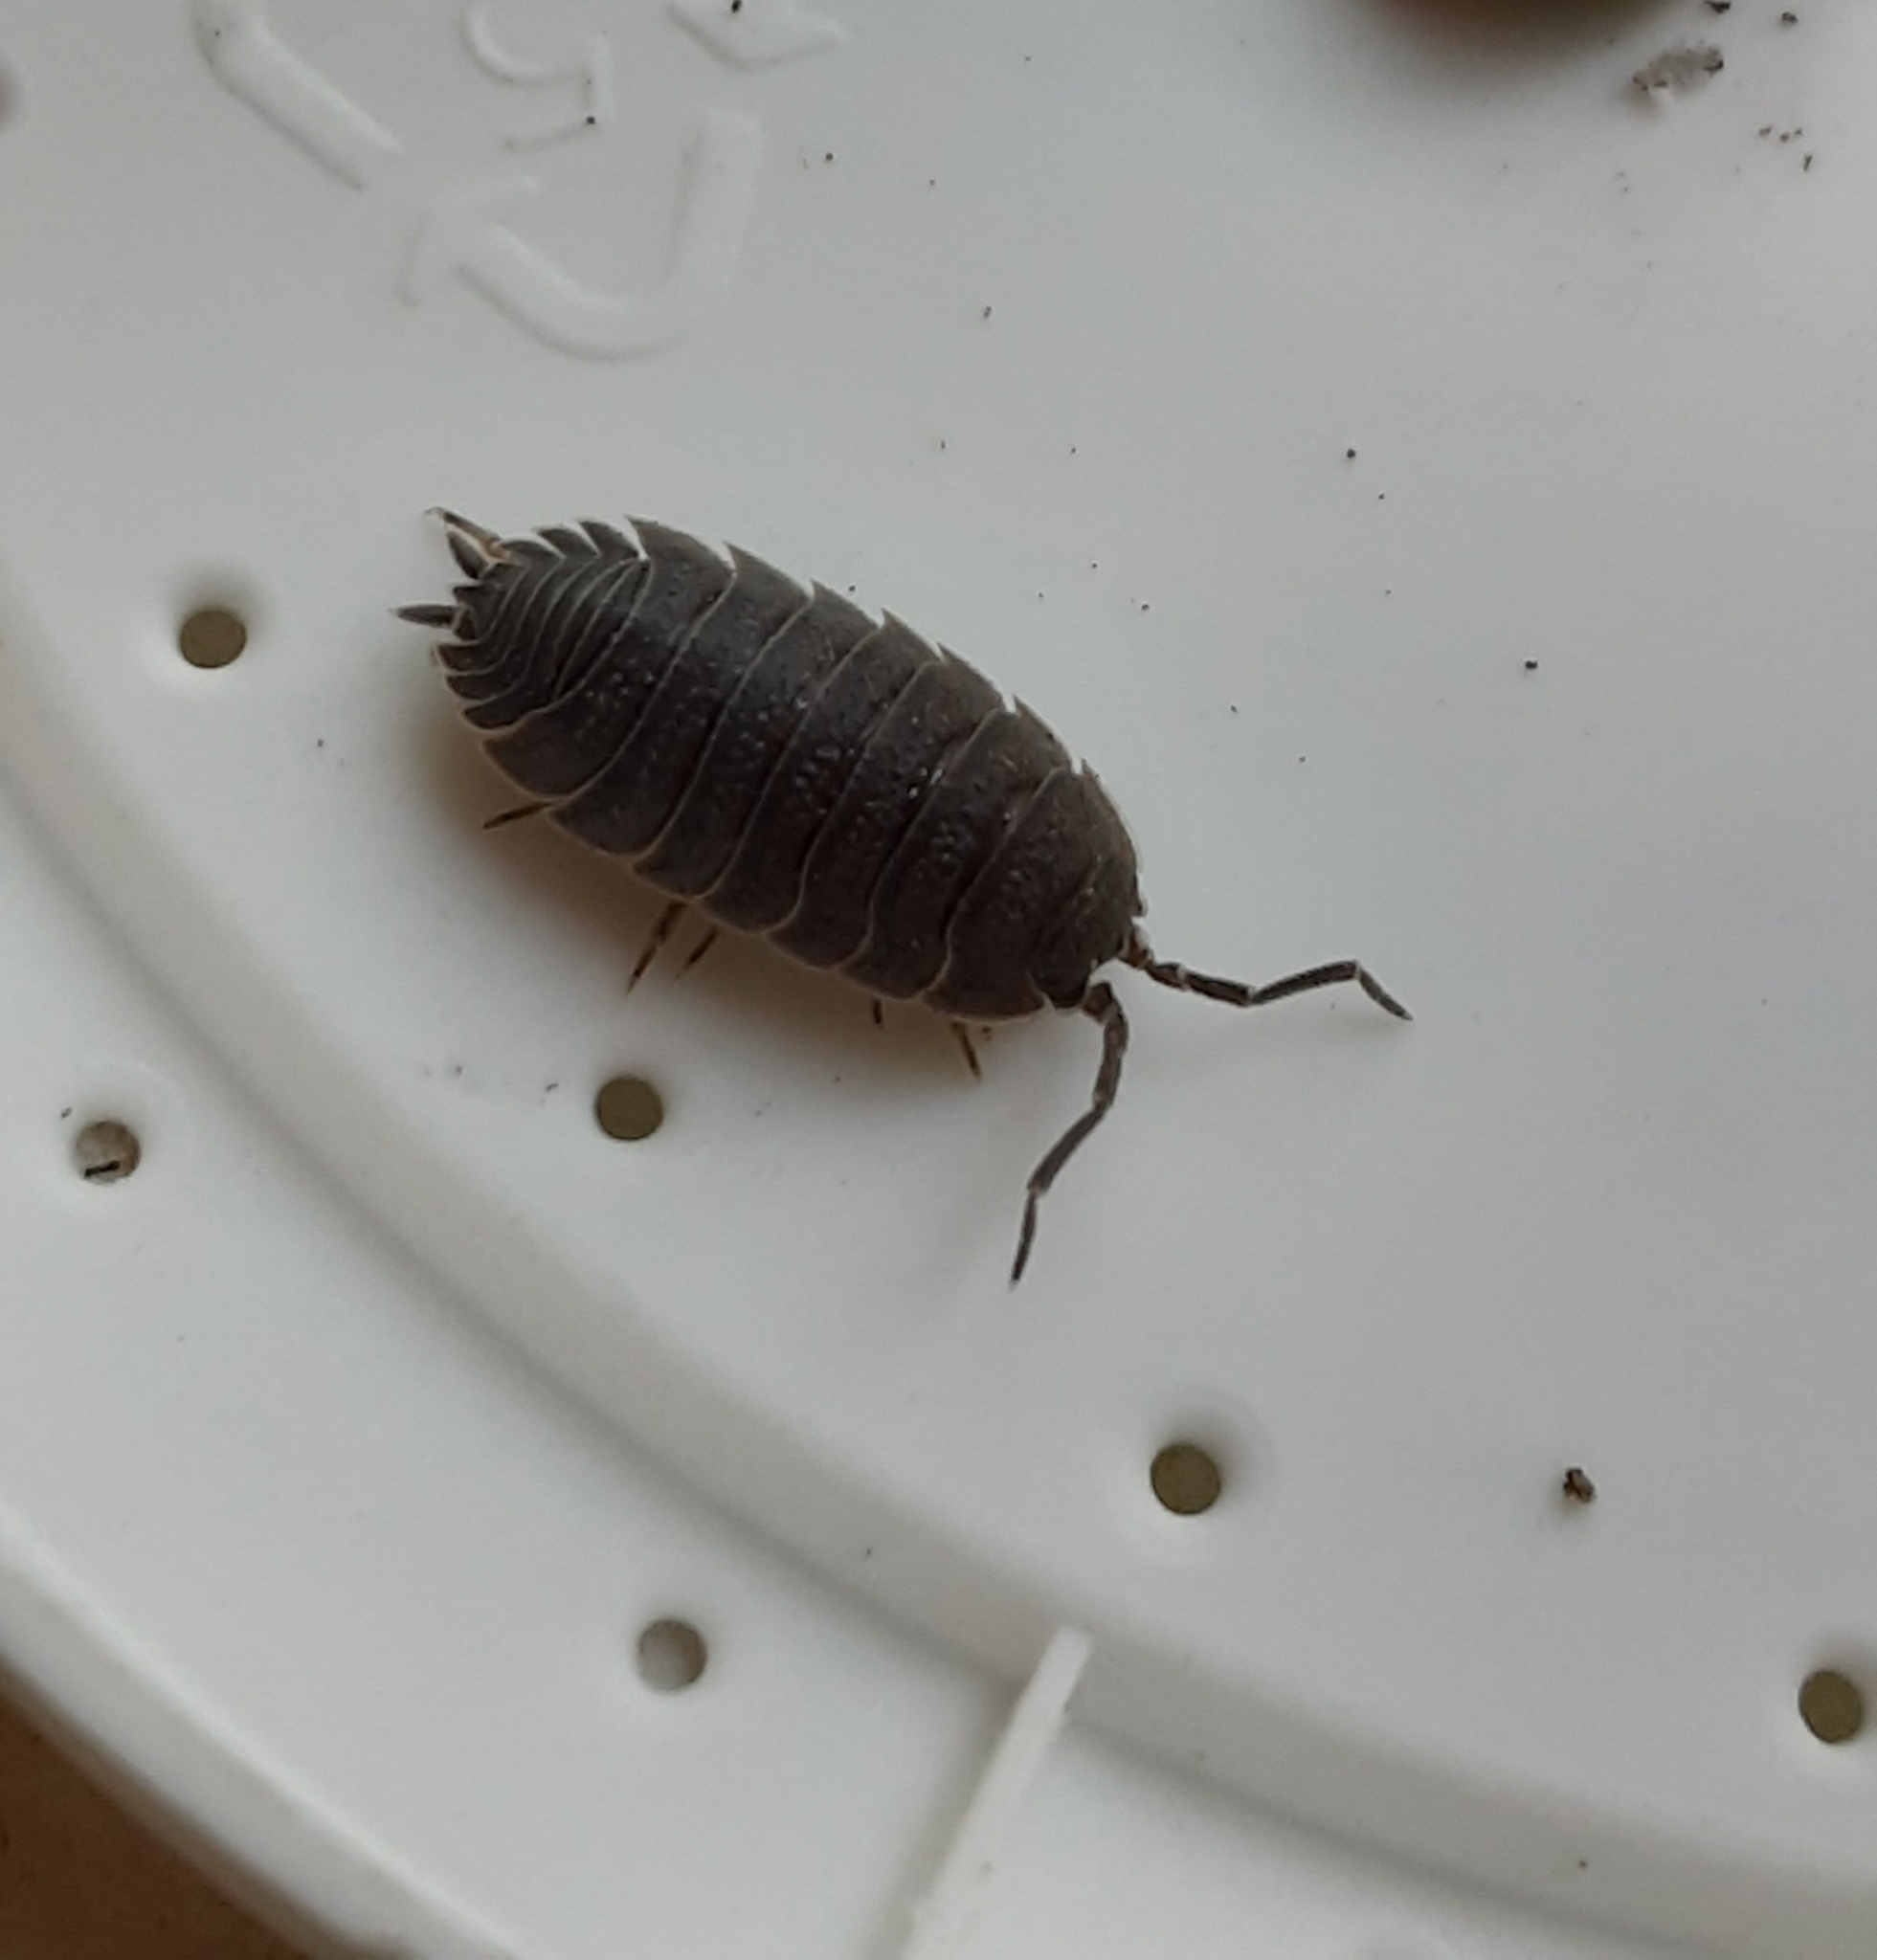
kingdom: Animalia
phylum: Arthropoda
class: Malacostraca
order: Isopoda
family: Porcellionidae
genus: Porcellio
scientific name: Porcellio scaber
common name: Common rough woodlouse
